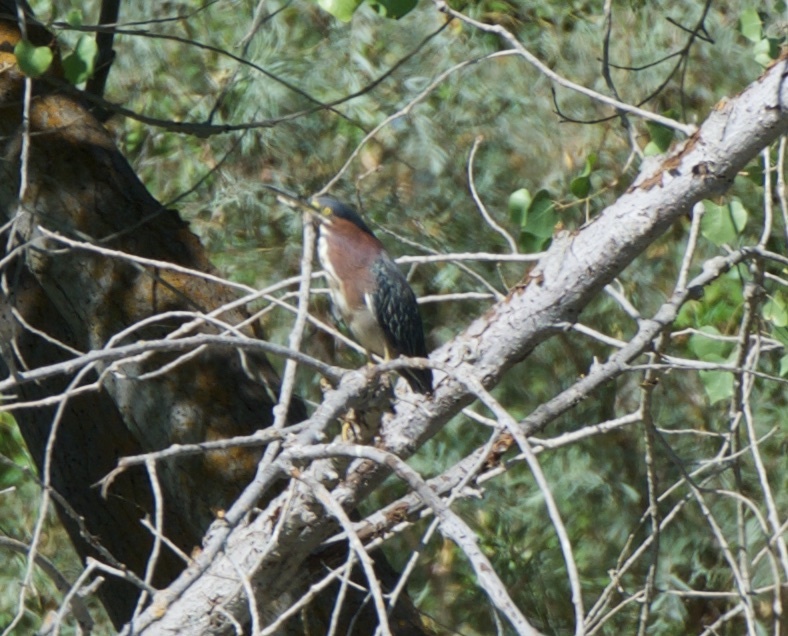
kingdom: Animalia
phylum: Chordata
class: Aves
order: Pelecaniformes
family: Ardeidae
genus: Butorides
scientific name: Butorides virescens
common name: Green heron
